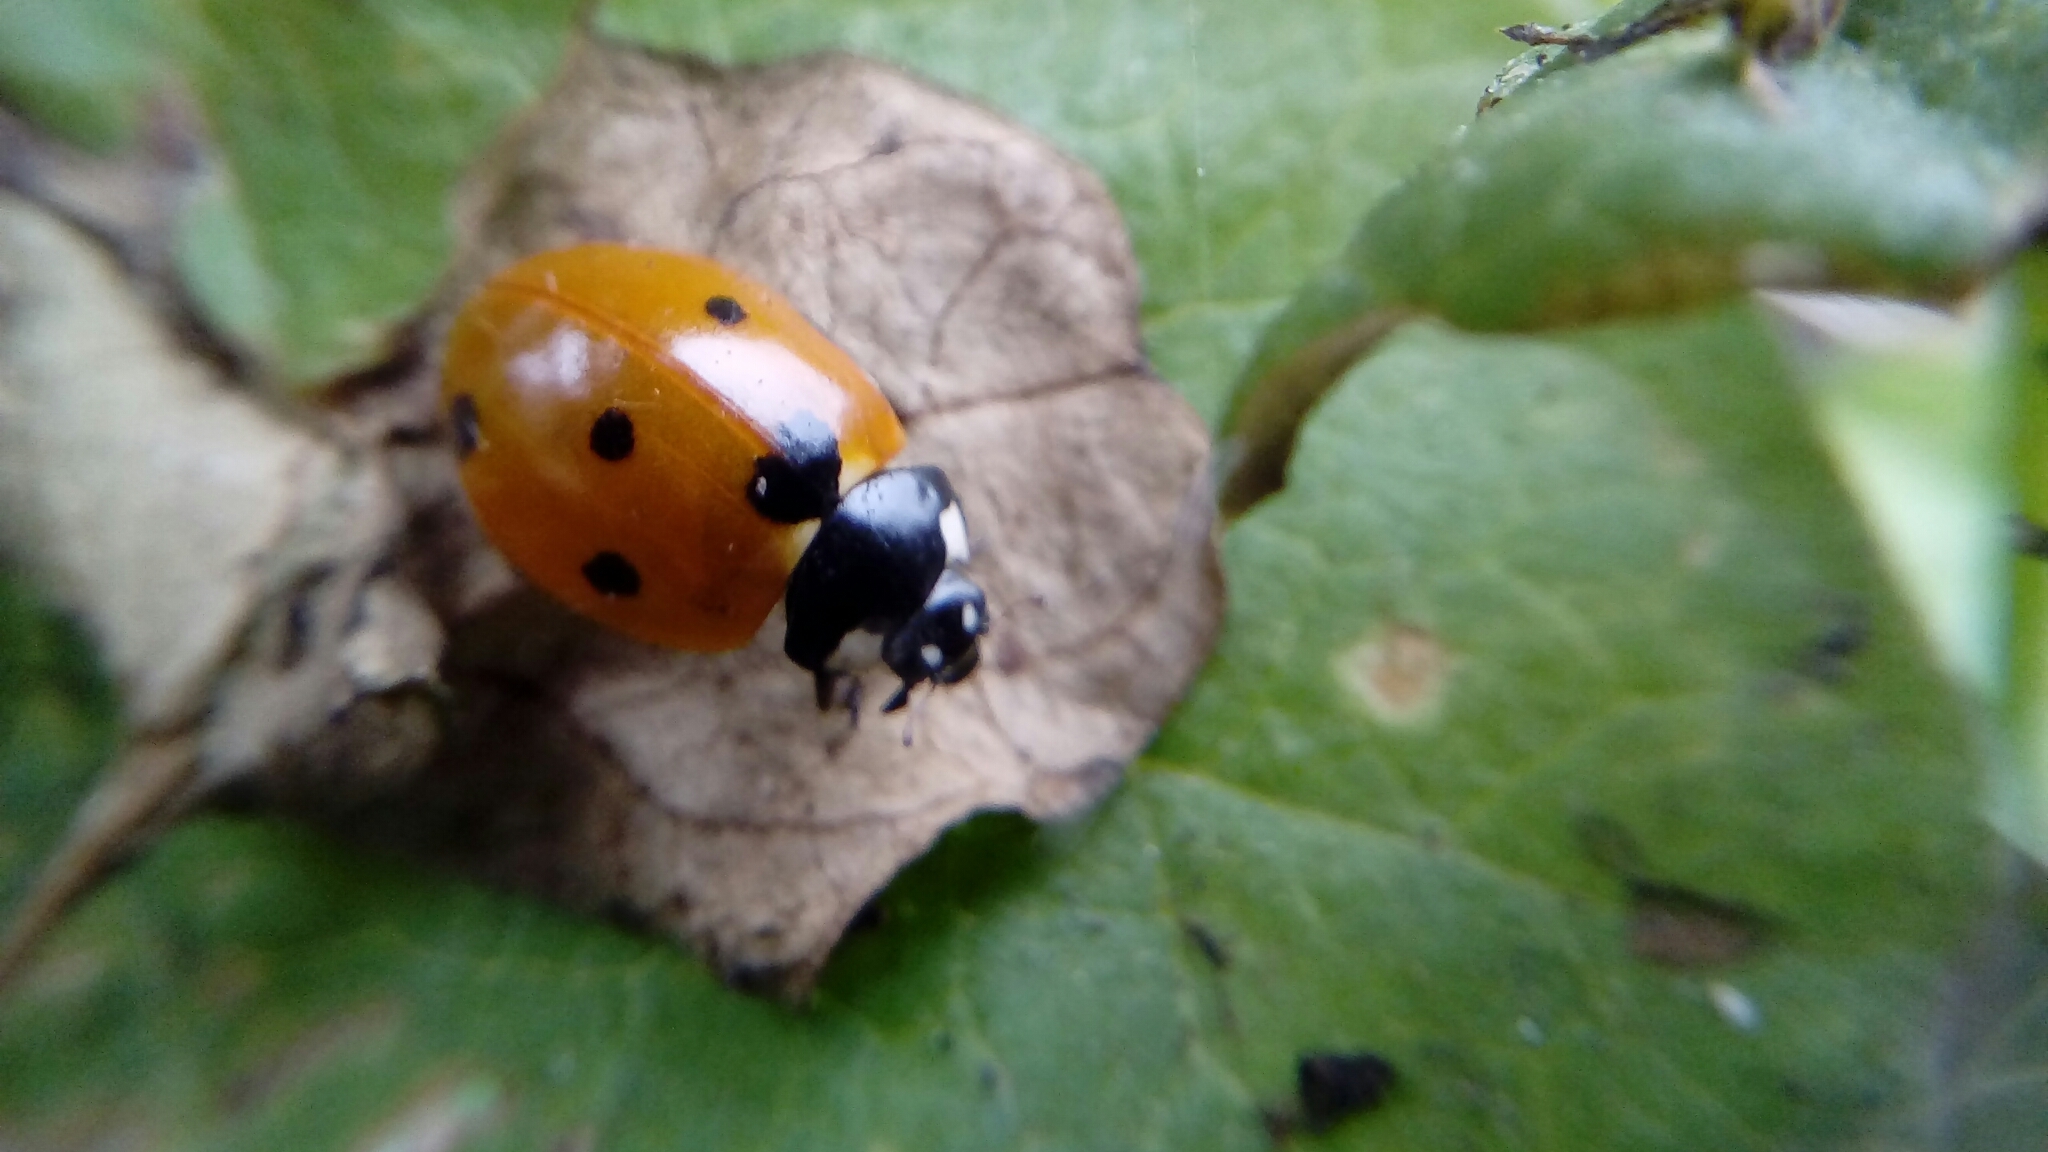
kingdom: Animalia
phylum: Arthropoda
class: Insecta
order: Coleoptera
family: Coccinellidae
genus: Coccinella
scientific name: Coccinella septempunctata
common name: Sevenspotted lady beetle
